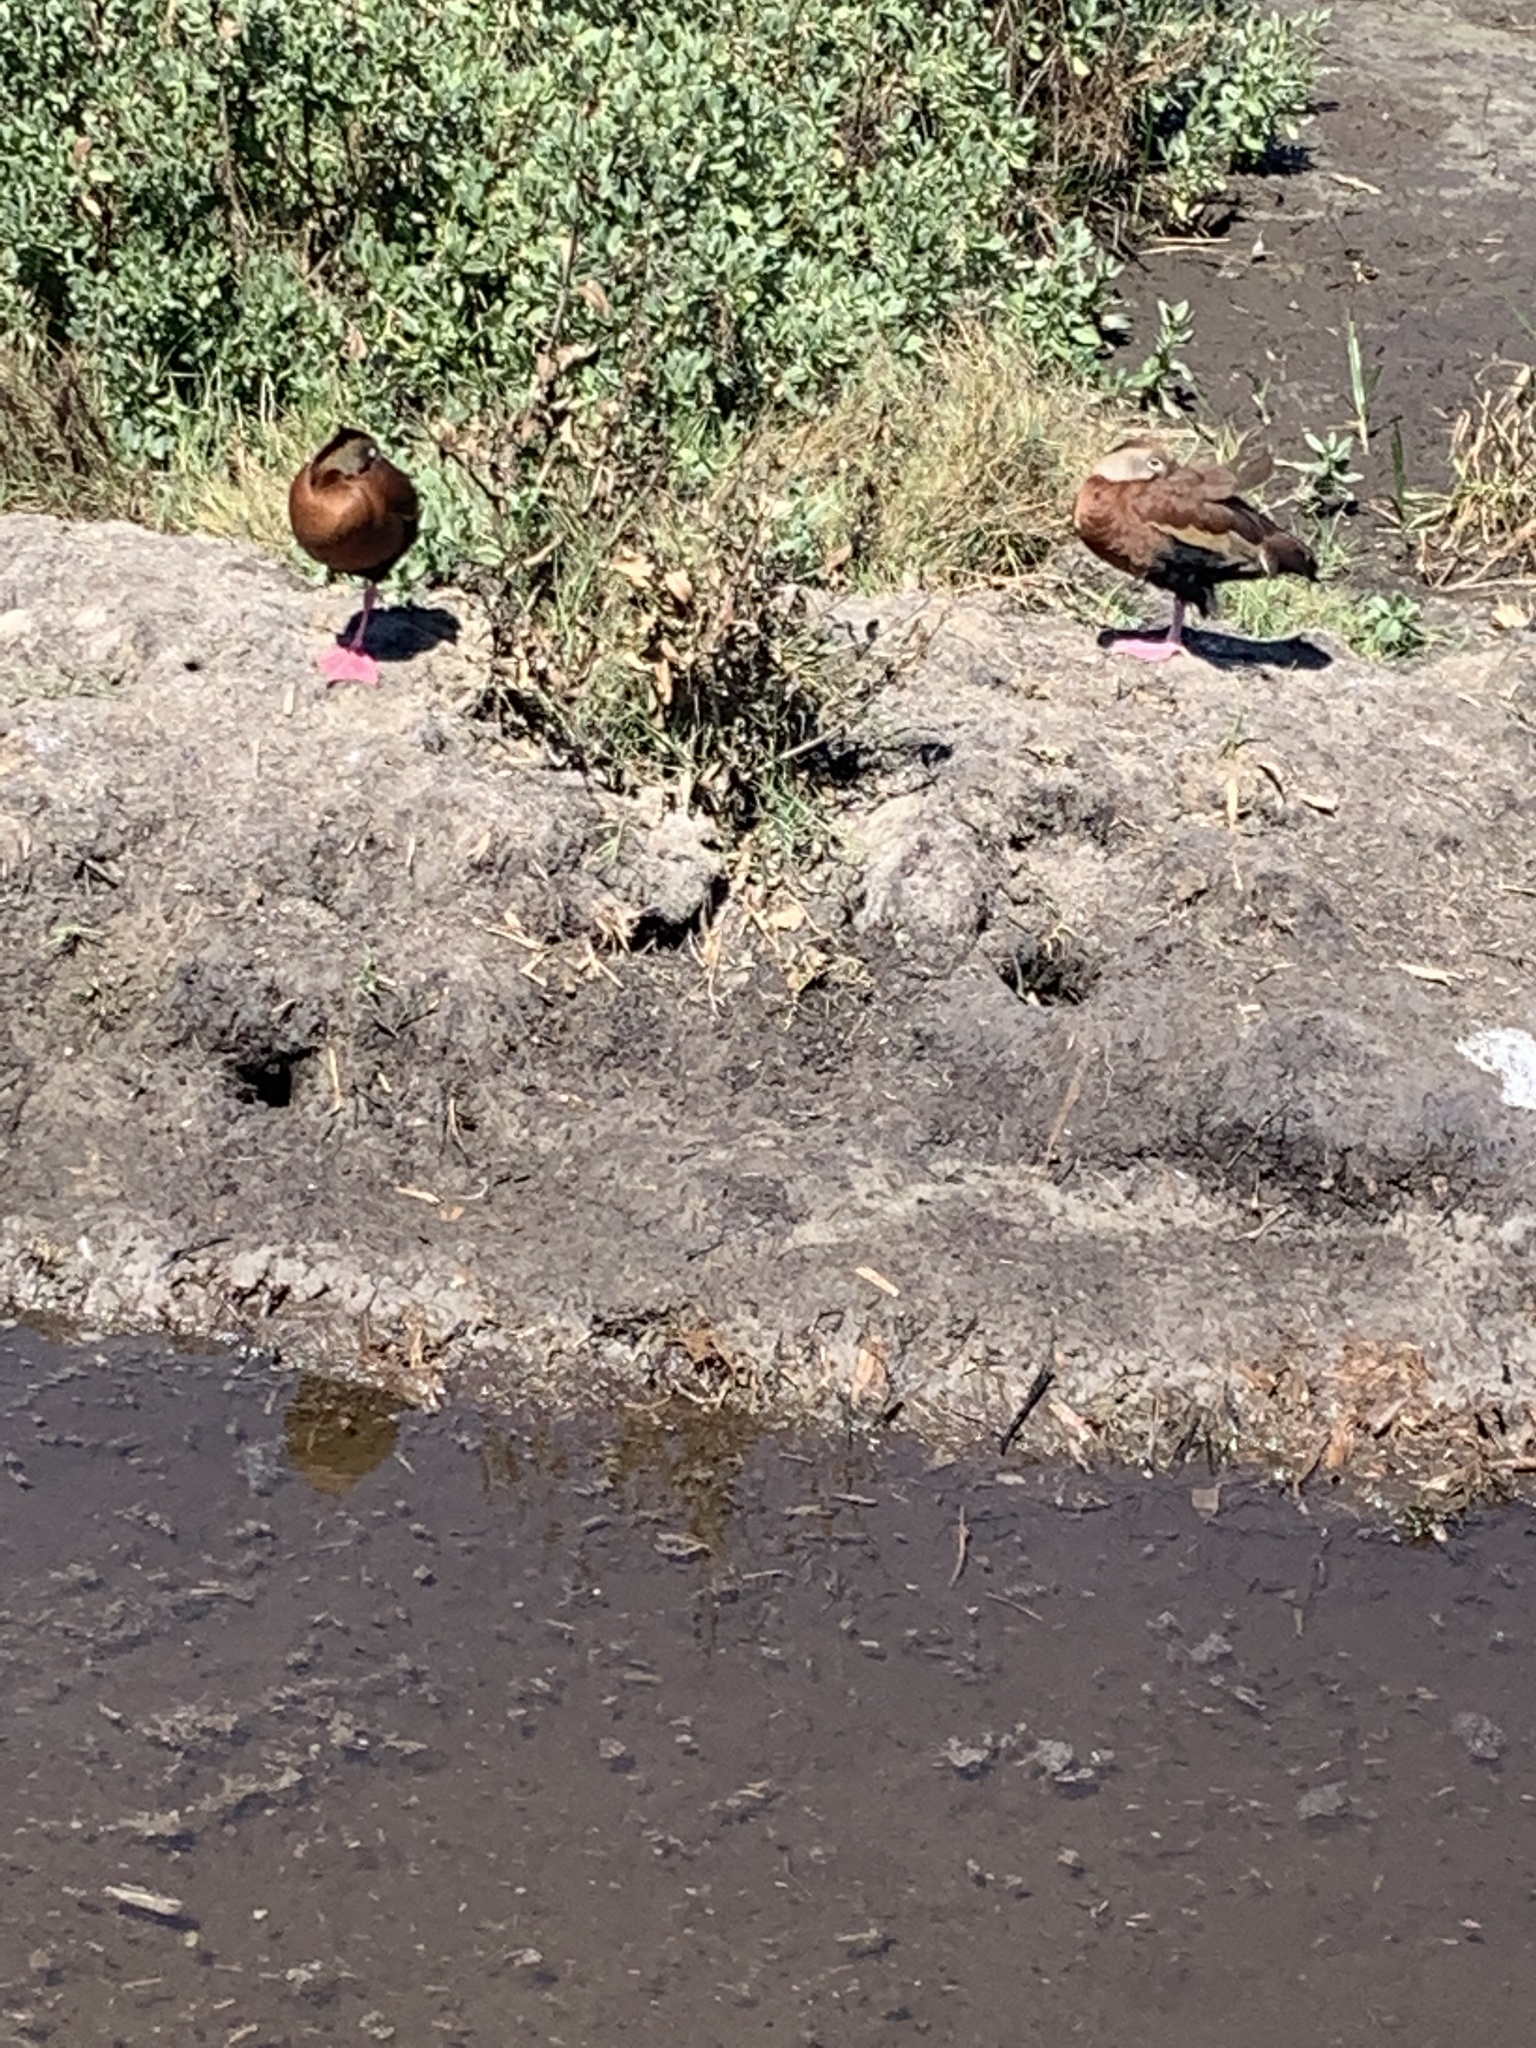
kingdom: Animalia
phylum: Chordata
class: Aves
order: Anseriformes
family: Anatidae
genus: Dendrocygna
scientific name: Dendrocygna autumnalis
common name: Black-bellied whistling duck
